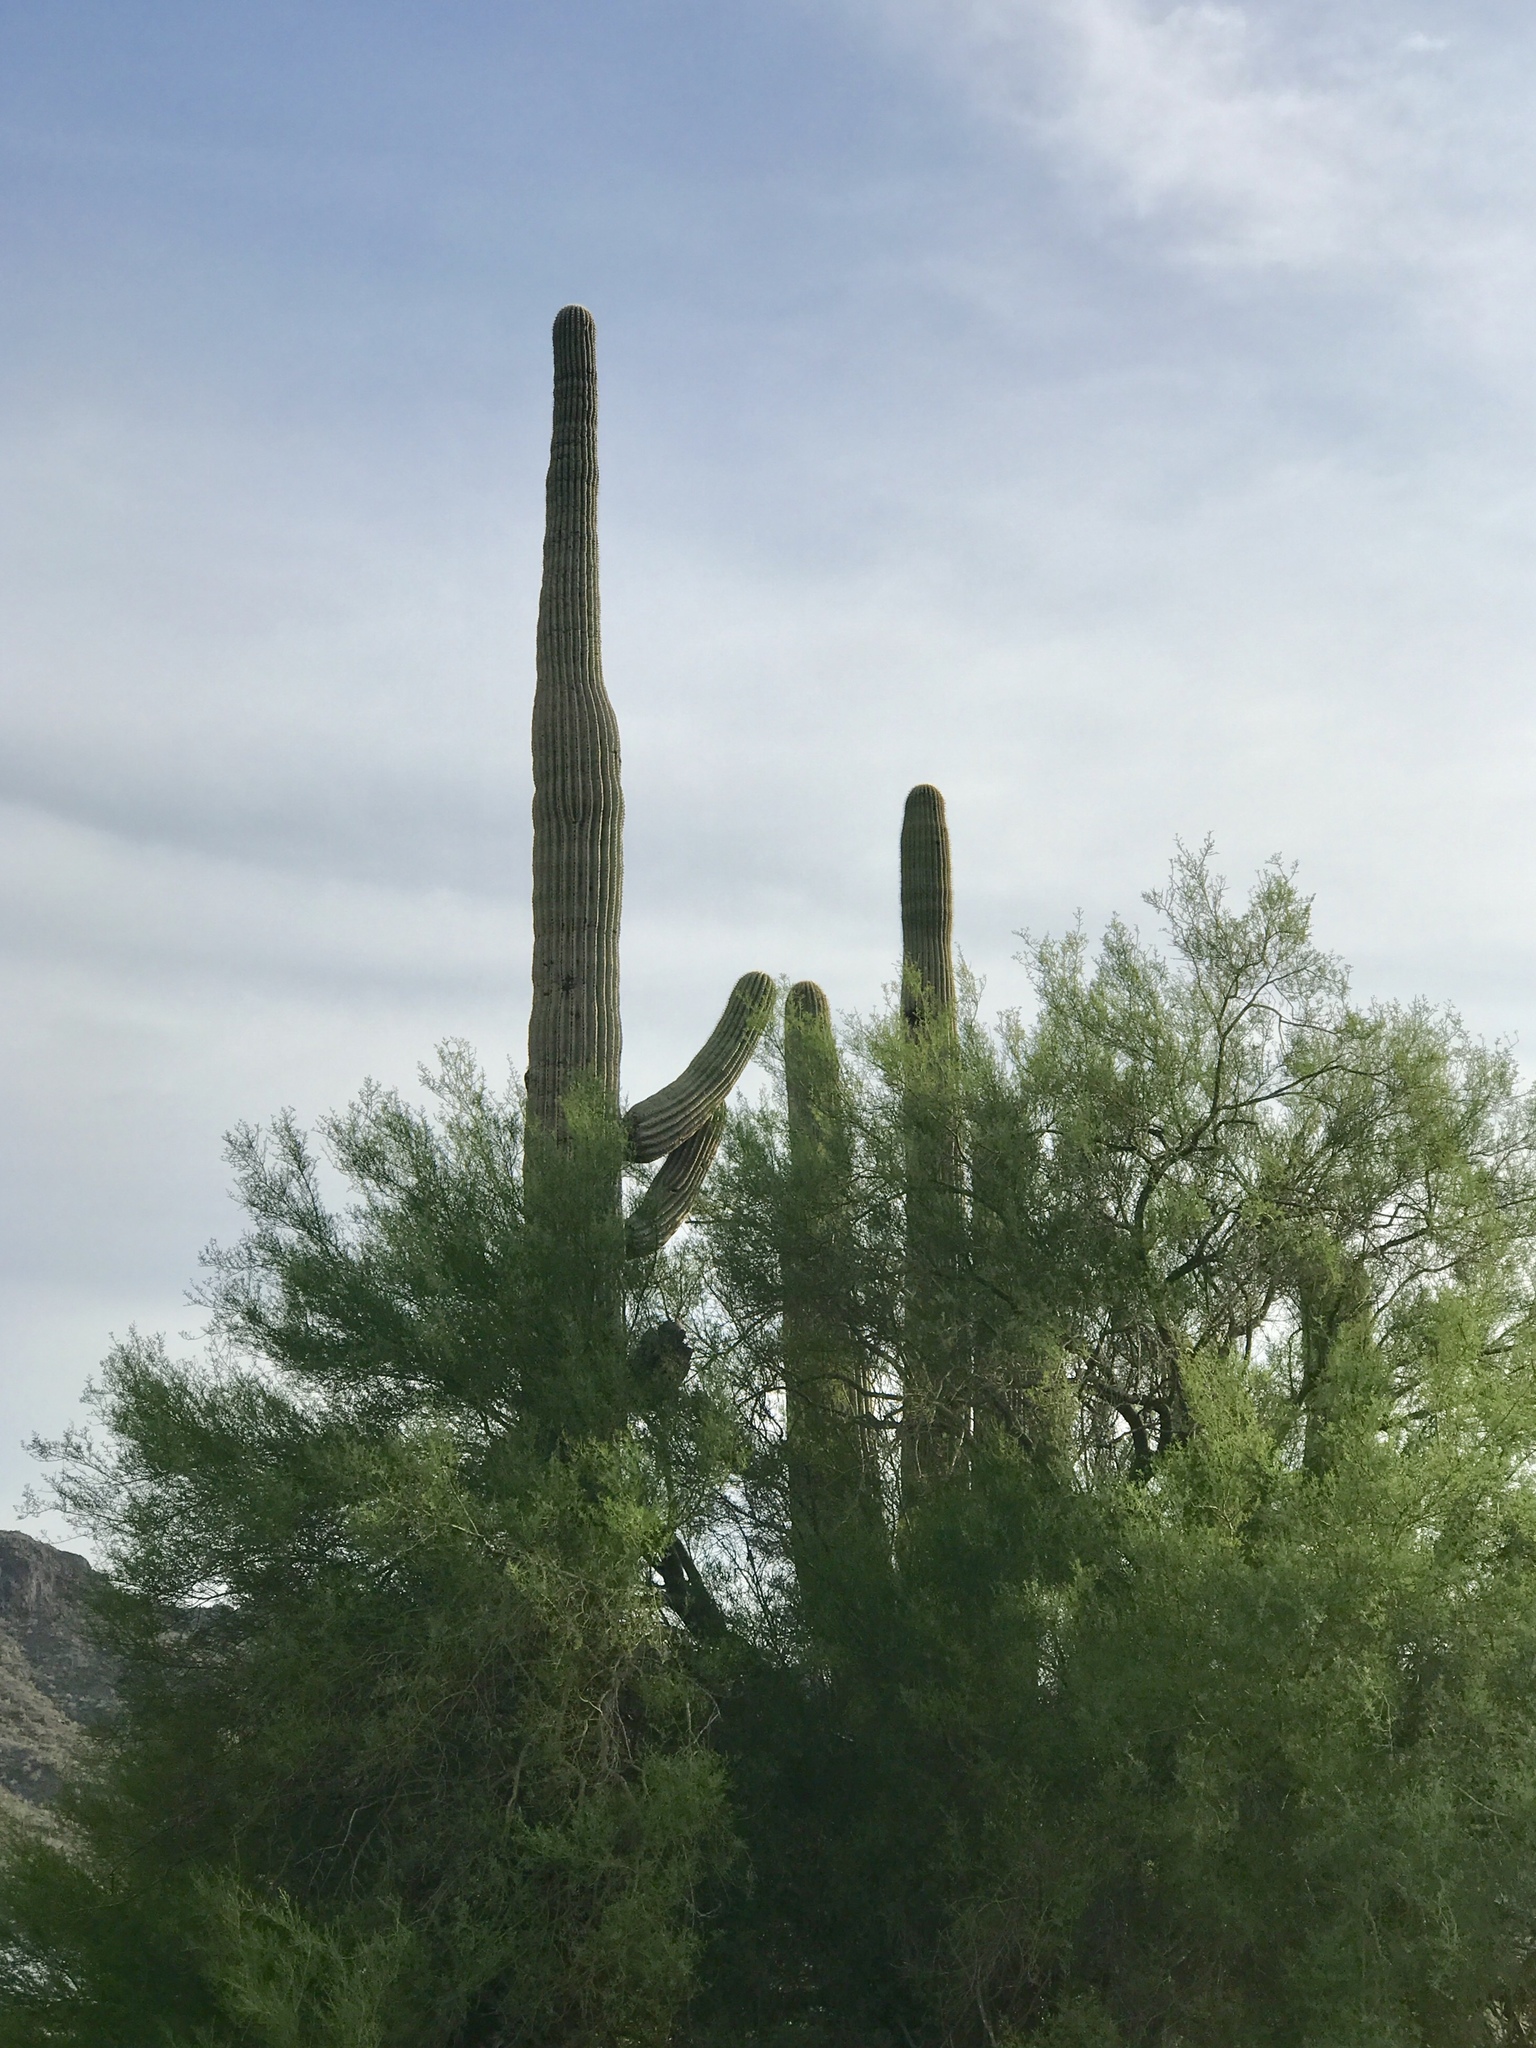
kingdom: Plantae
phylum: Tracheophyta
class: Magnoliopsida
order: Caryophyllales
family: Cactaceae
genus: Carnegiea
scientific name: Carnegiea gigantea
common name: Saguaro
